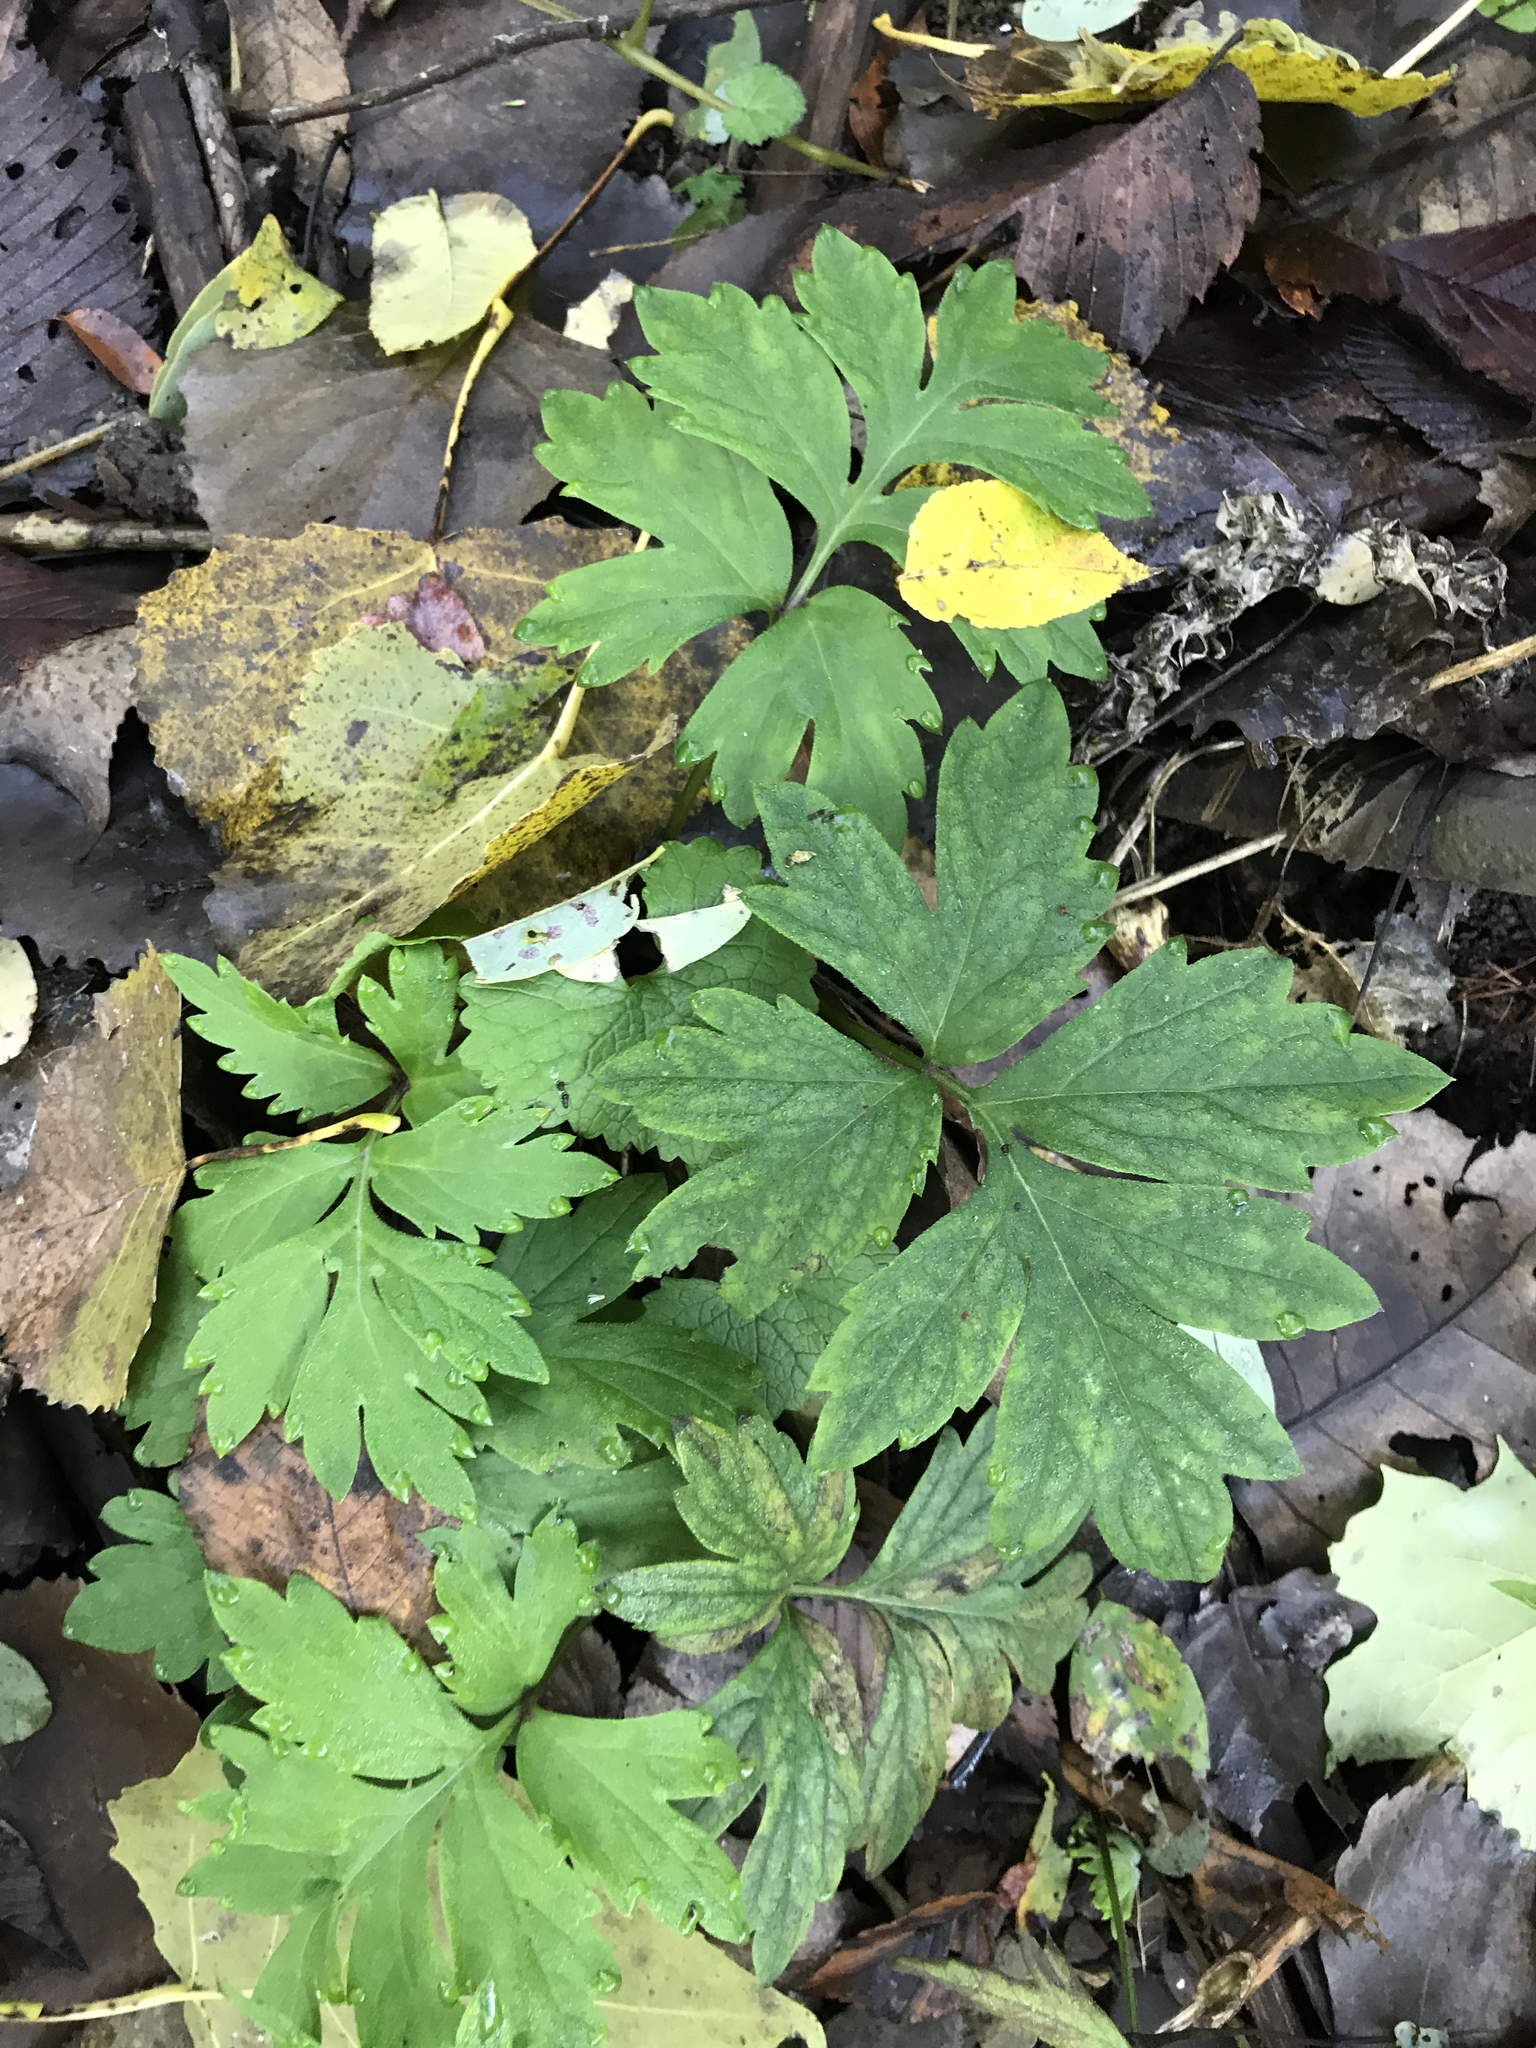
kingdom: Plantae
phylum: Tracheophyta
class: Magnoliopsida
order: Boraginales
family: Hydrophyllaceae
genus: Hydrophyllum
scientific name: Hydrophyllum virginianum
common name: Virginia waterleaf
